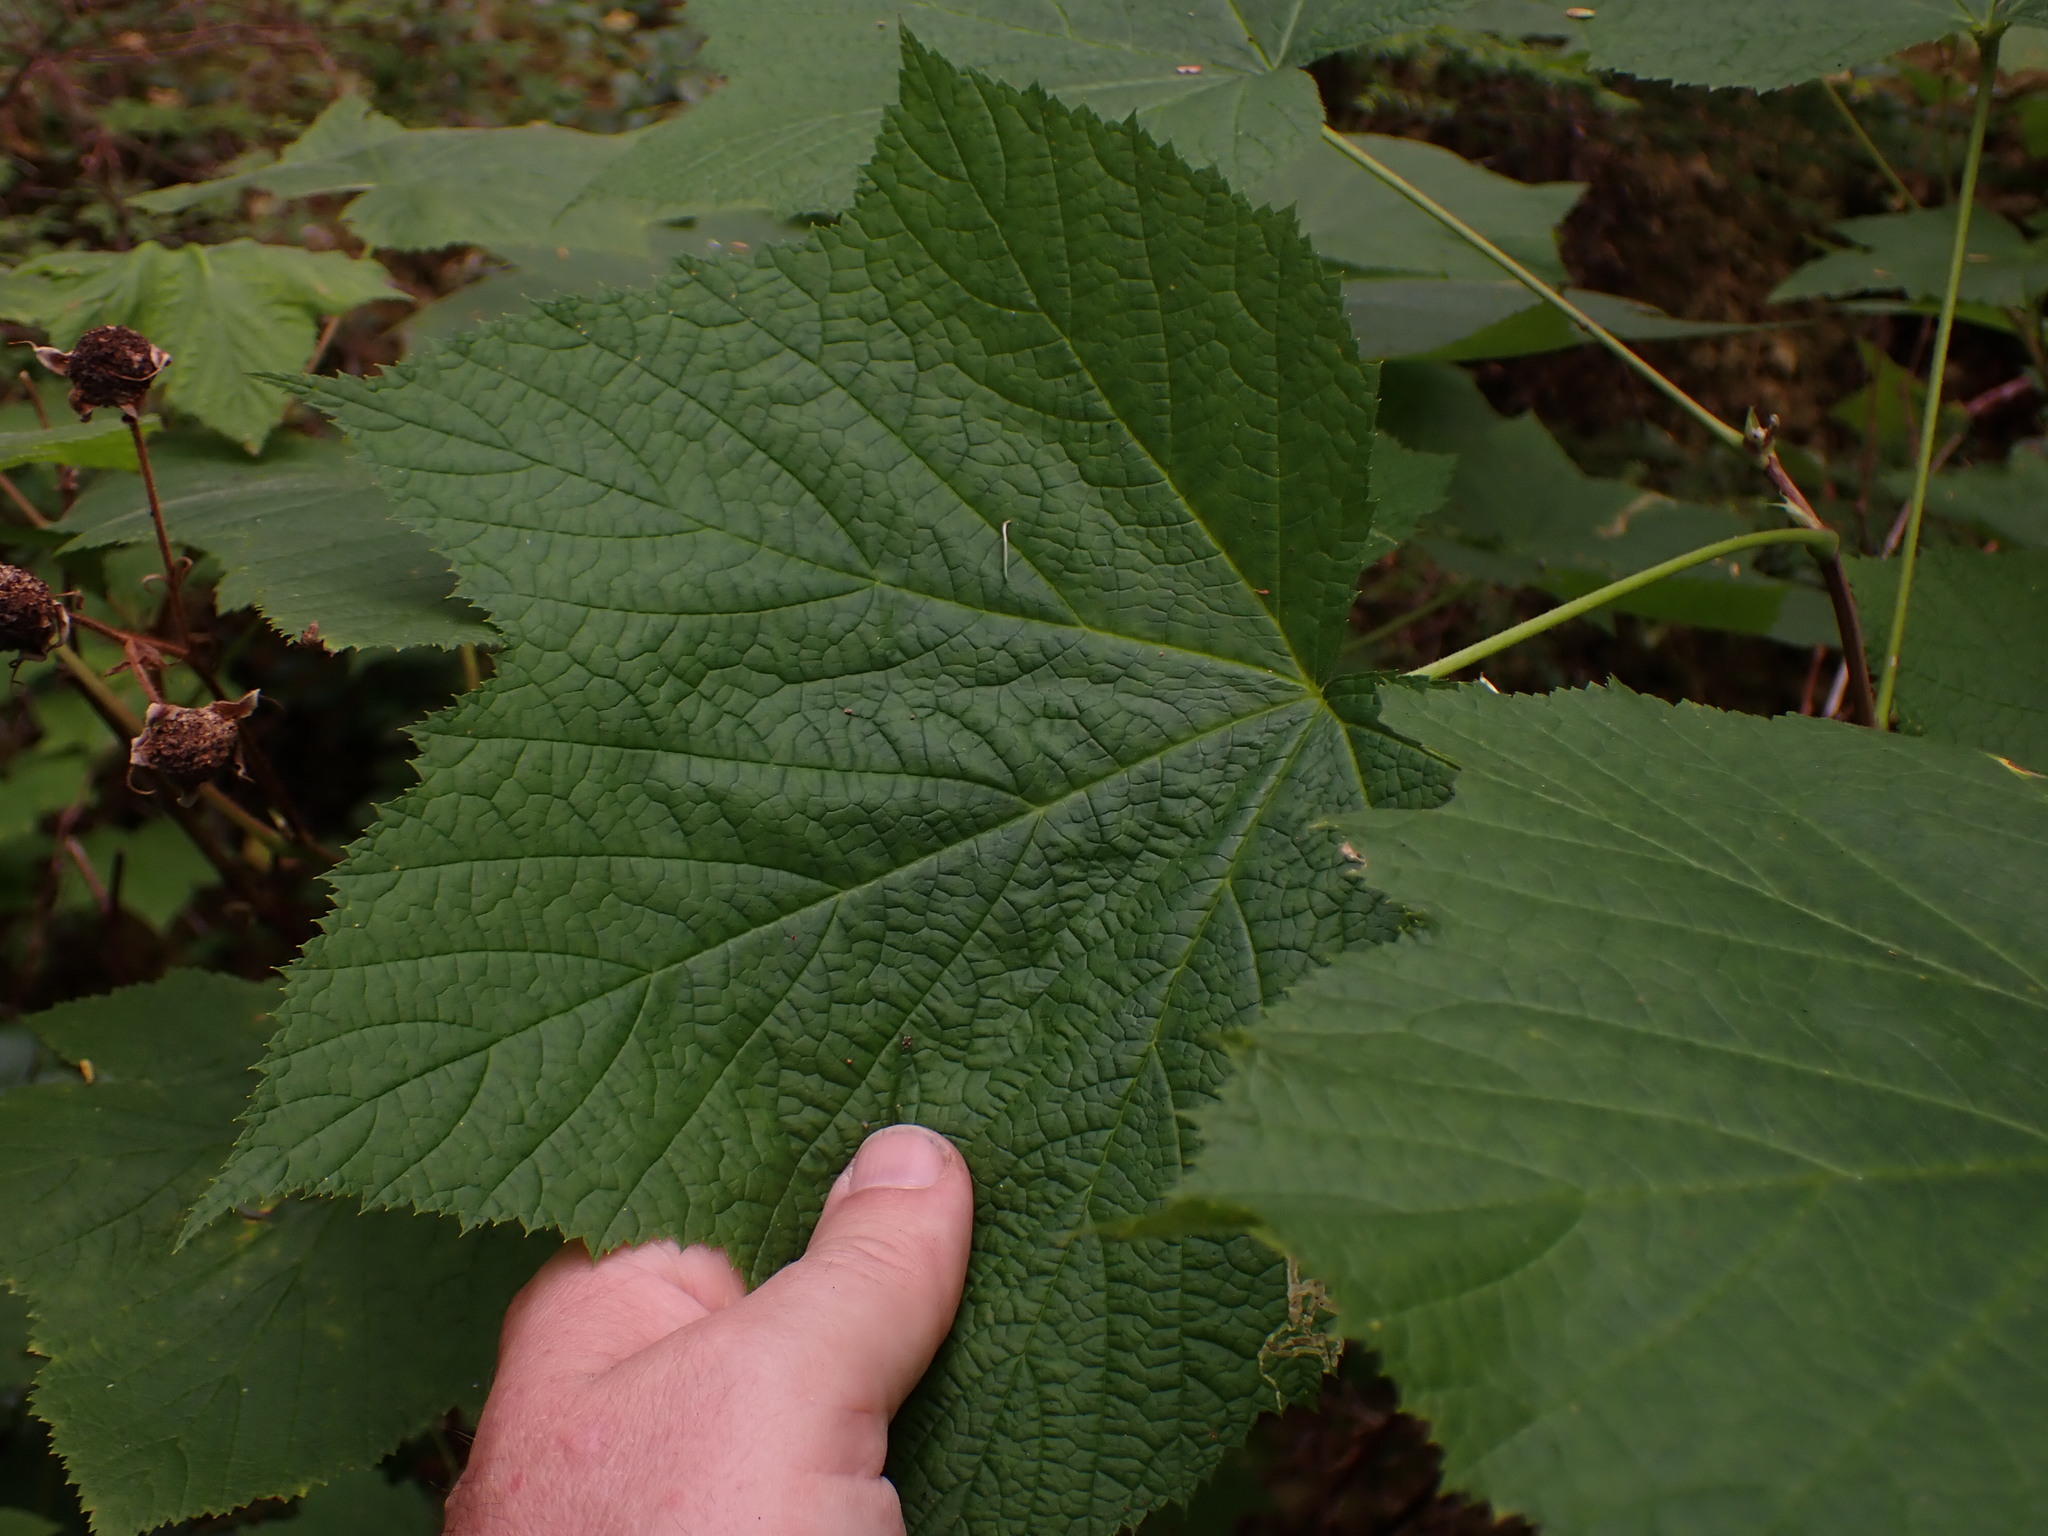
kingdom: Plantae
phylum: Tracheophyta
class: Magnoliopsida
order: Rosales
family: Rosaceae
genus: Rubus
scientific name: Rubus parviflorus
